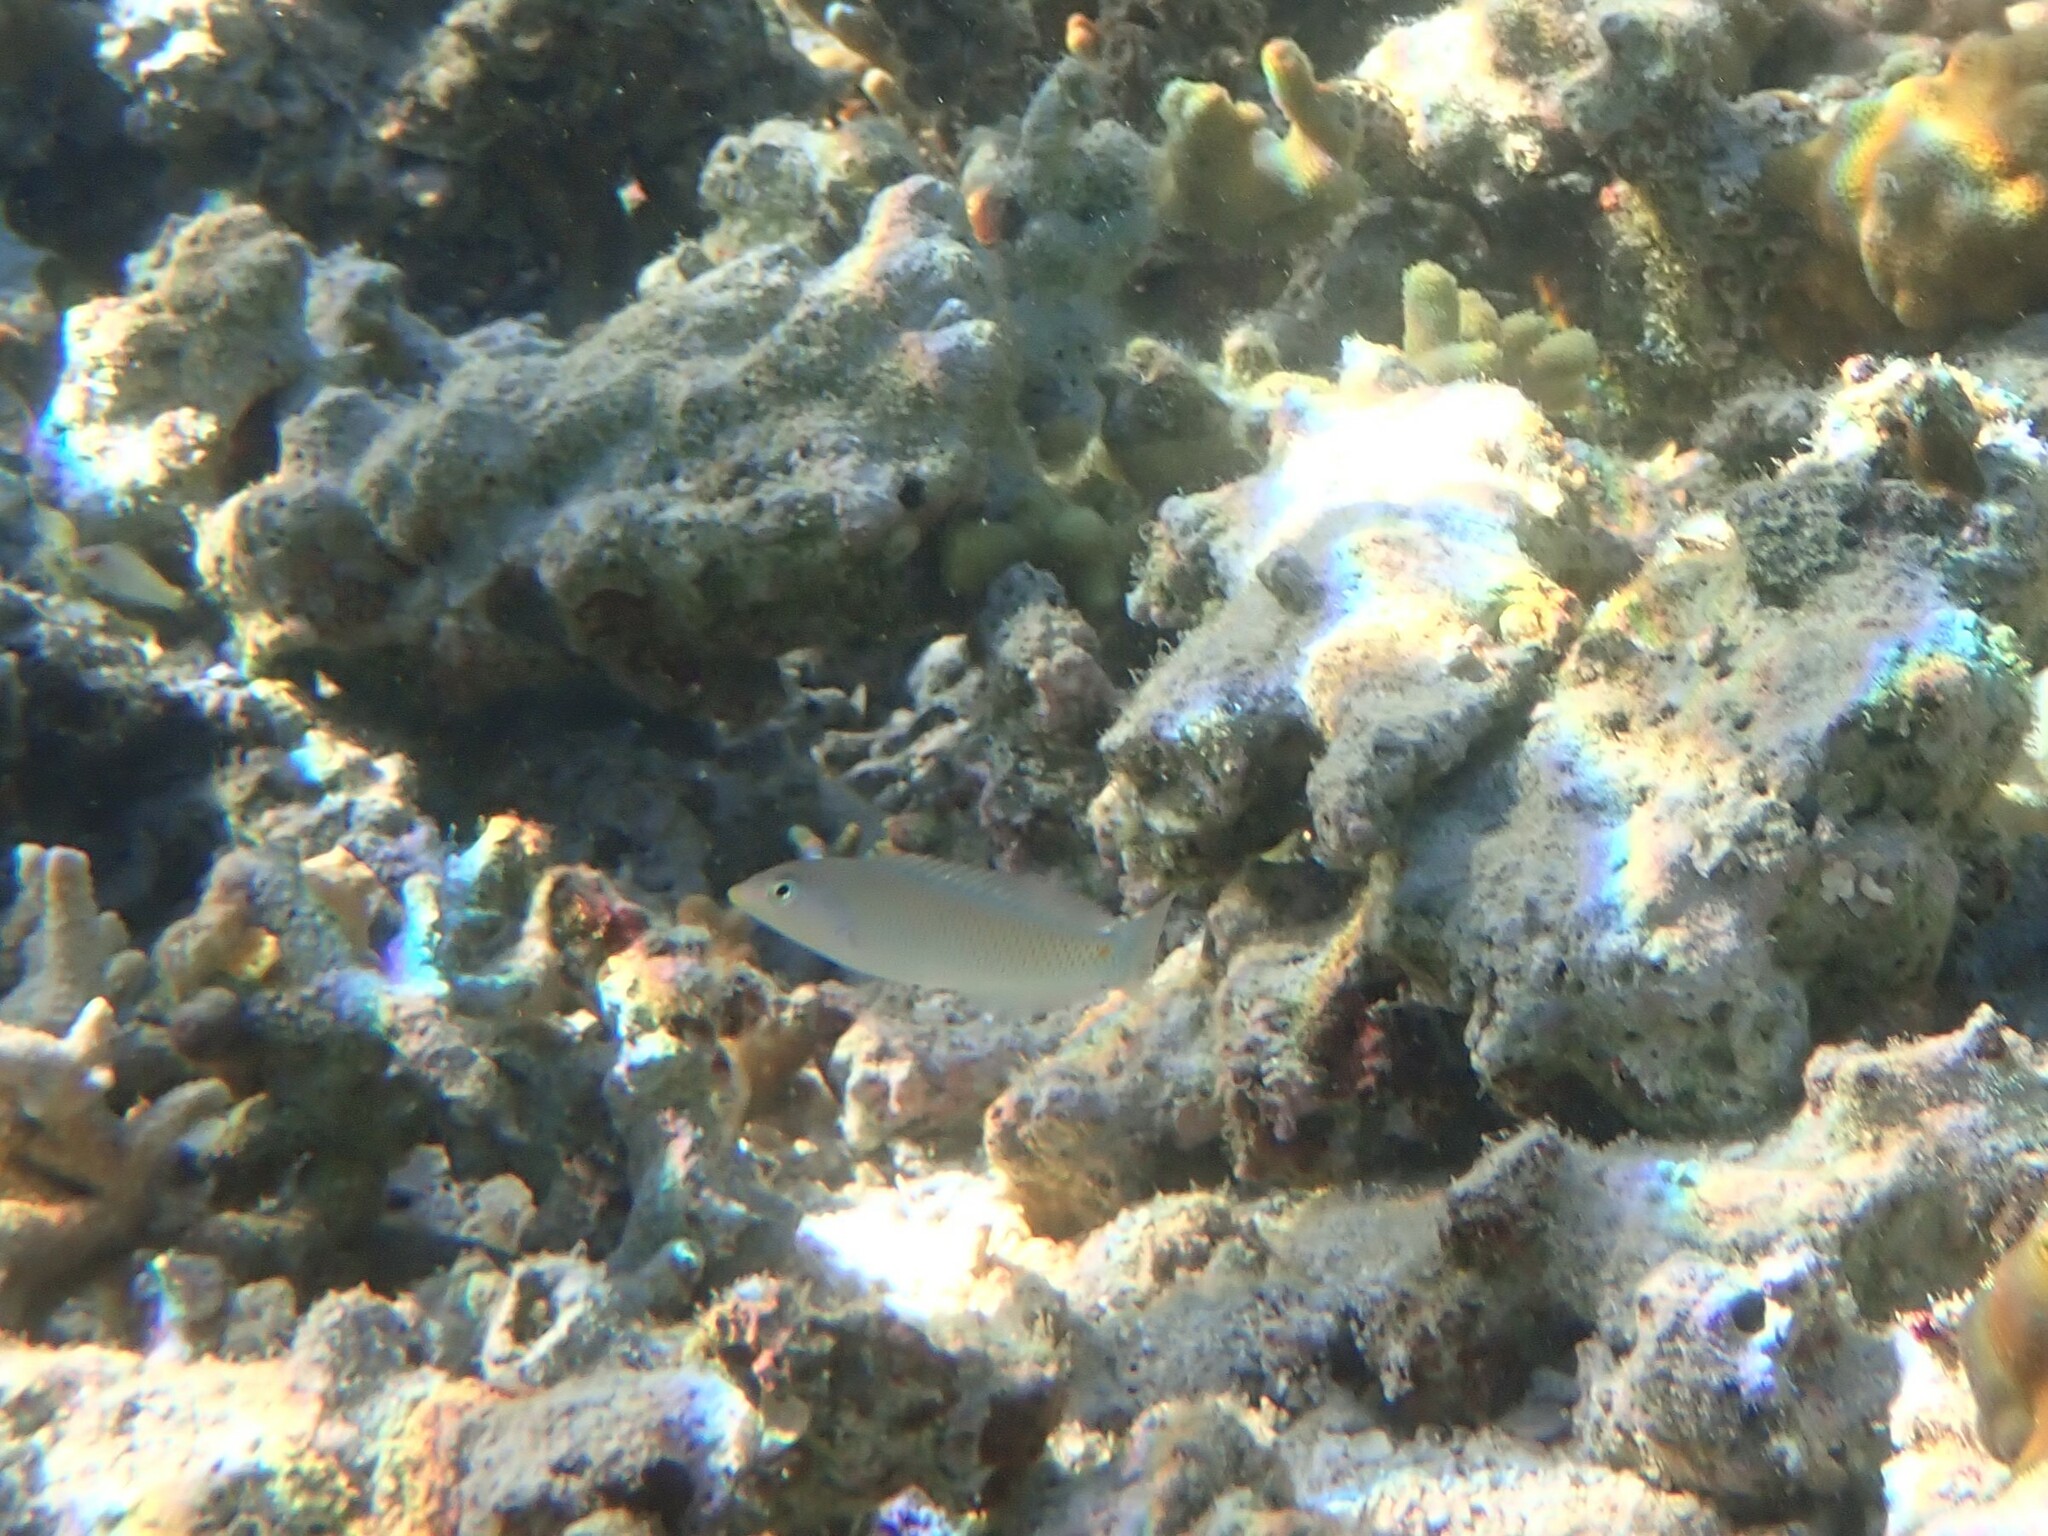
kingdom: Animalia
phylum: Chordata
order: Perciformes
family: Labridae
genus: Halichoeres
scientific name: Halichoeres trimaculatus
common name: Three-spot wrasse
